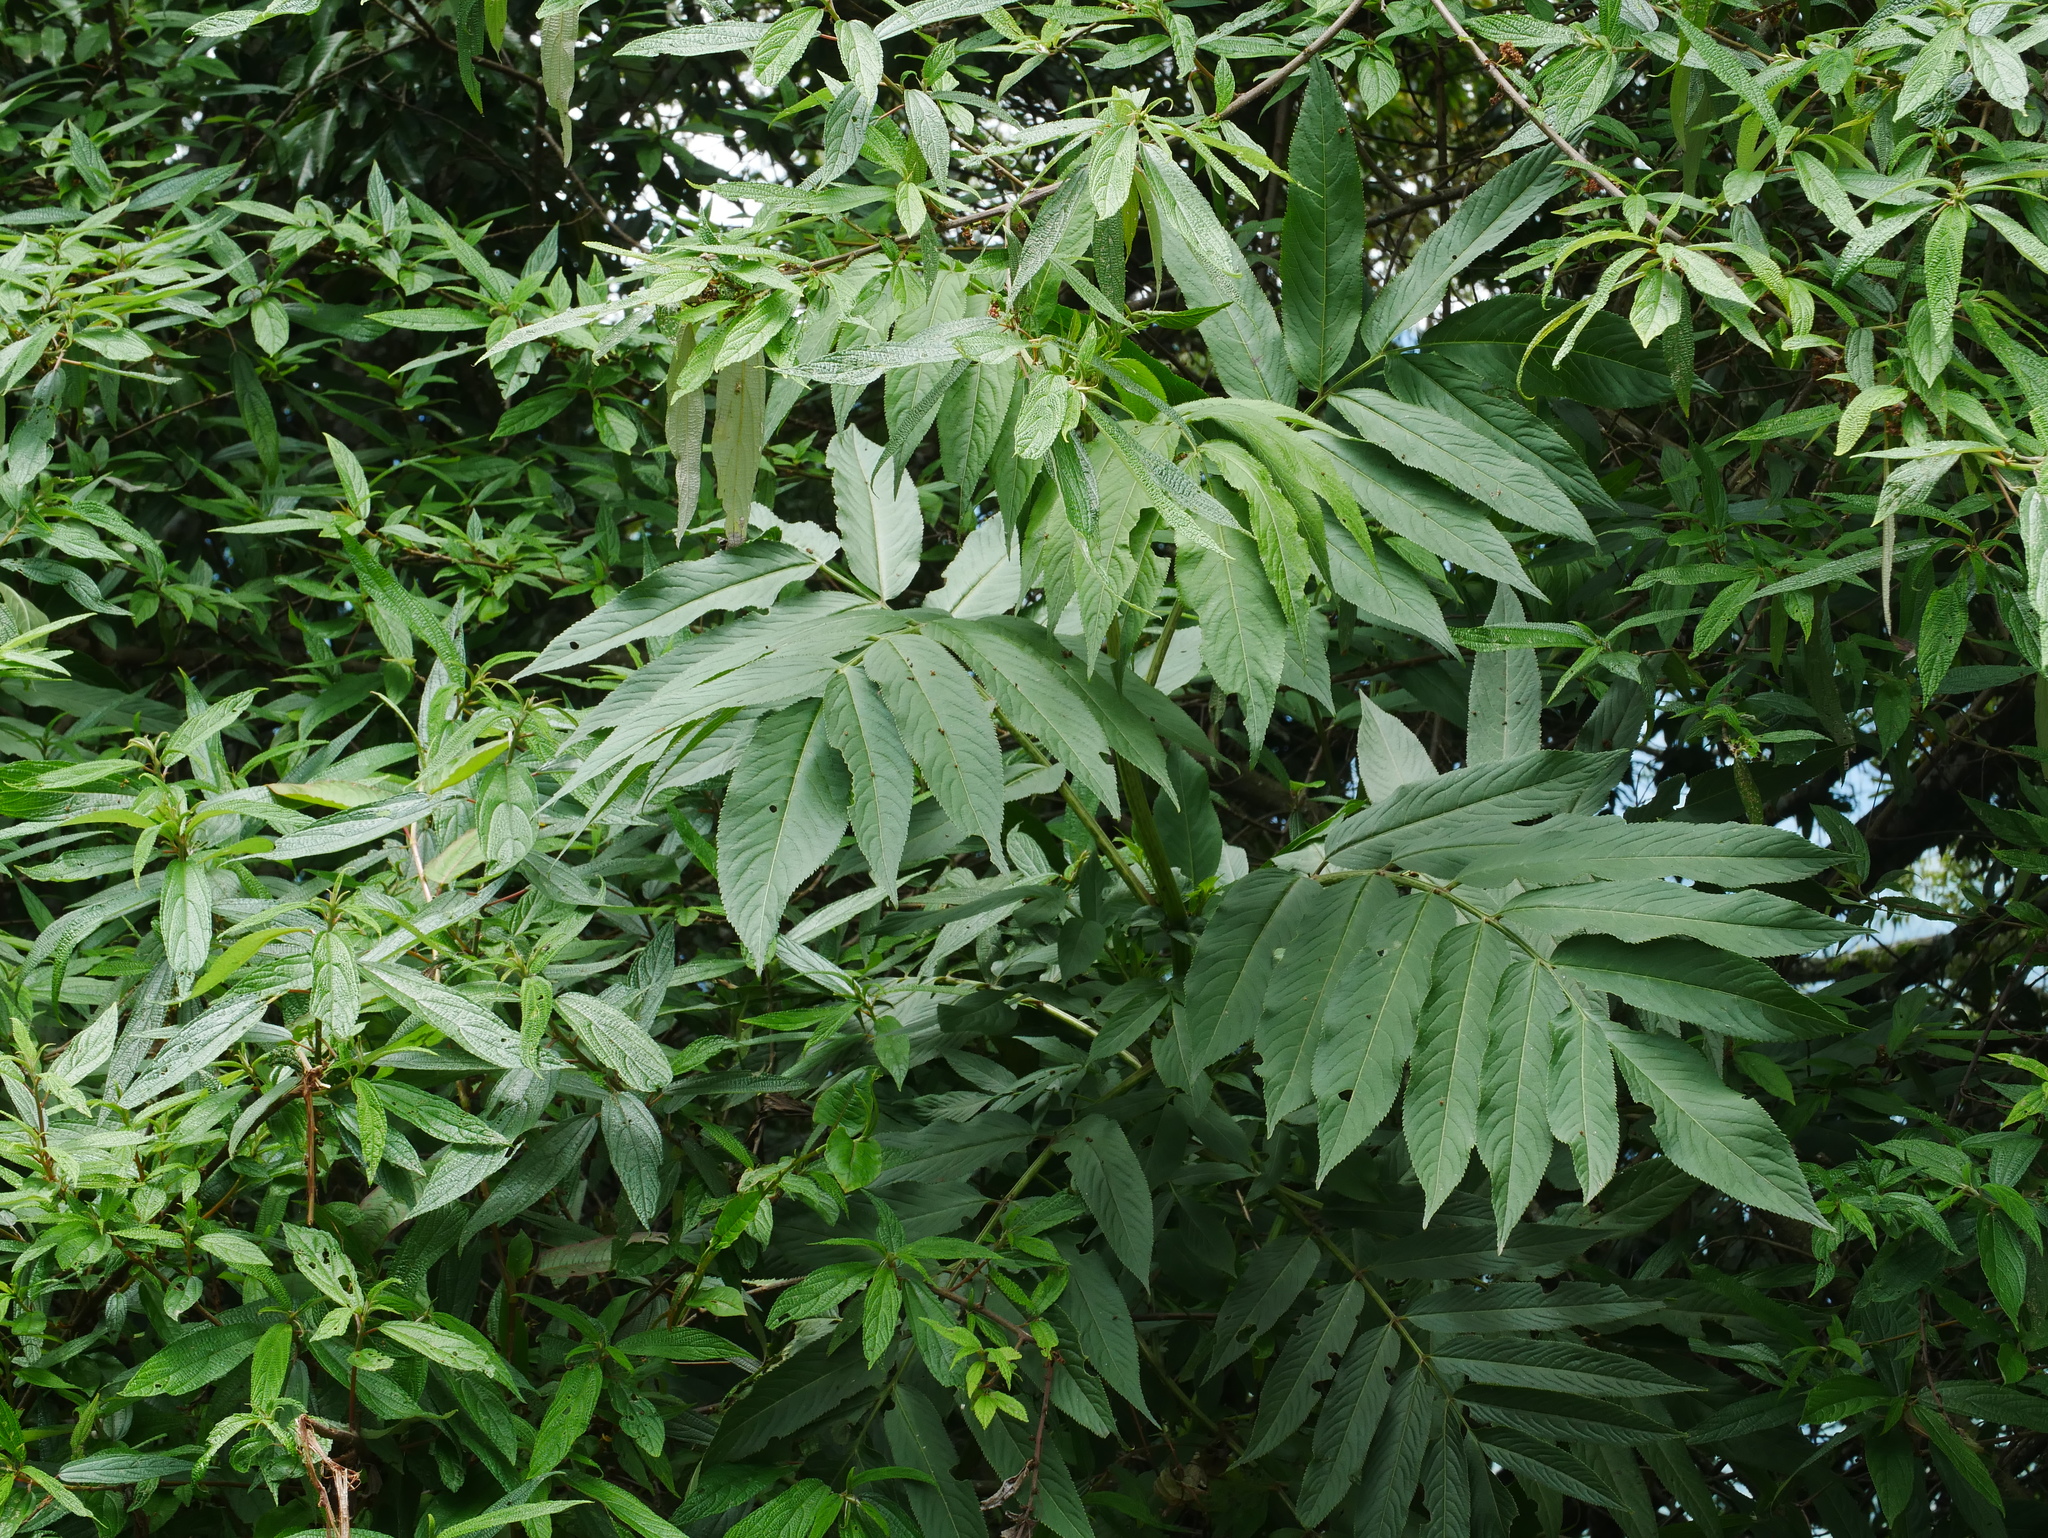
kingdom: Plantae
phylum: Tracheophyta
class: Magnoliopsida
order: Dipsacales
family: Viburnaceae
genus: Sambucus
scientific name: Sambucus javanica
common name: Chinese elder
